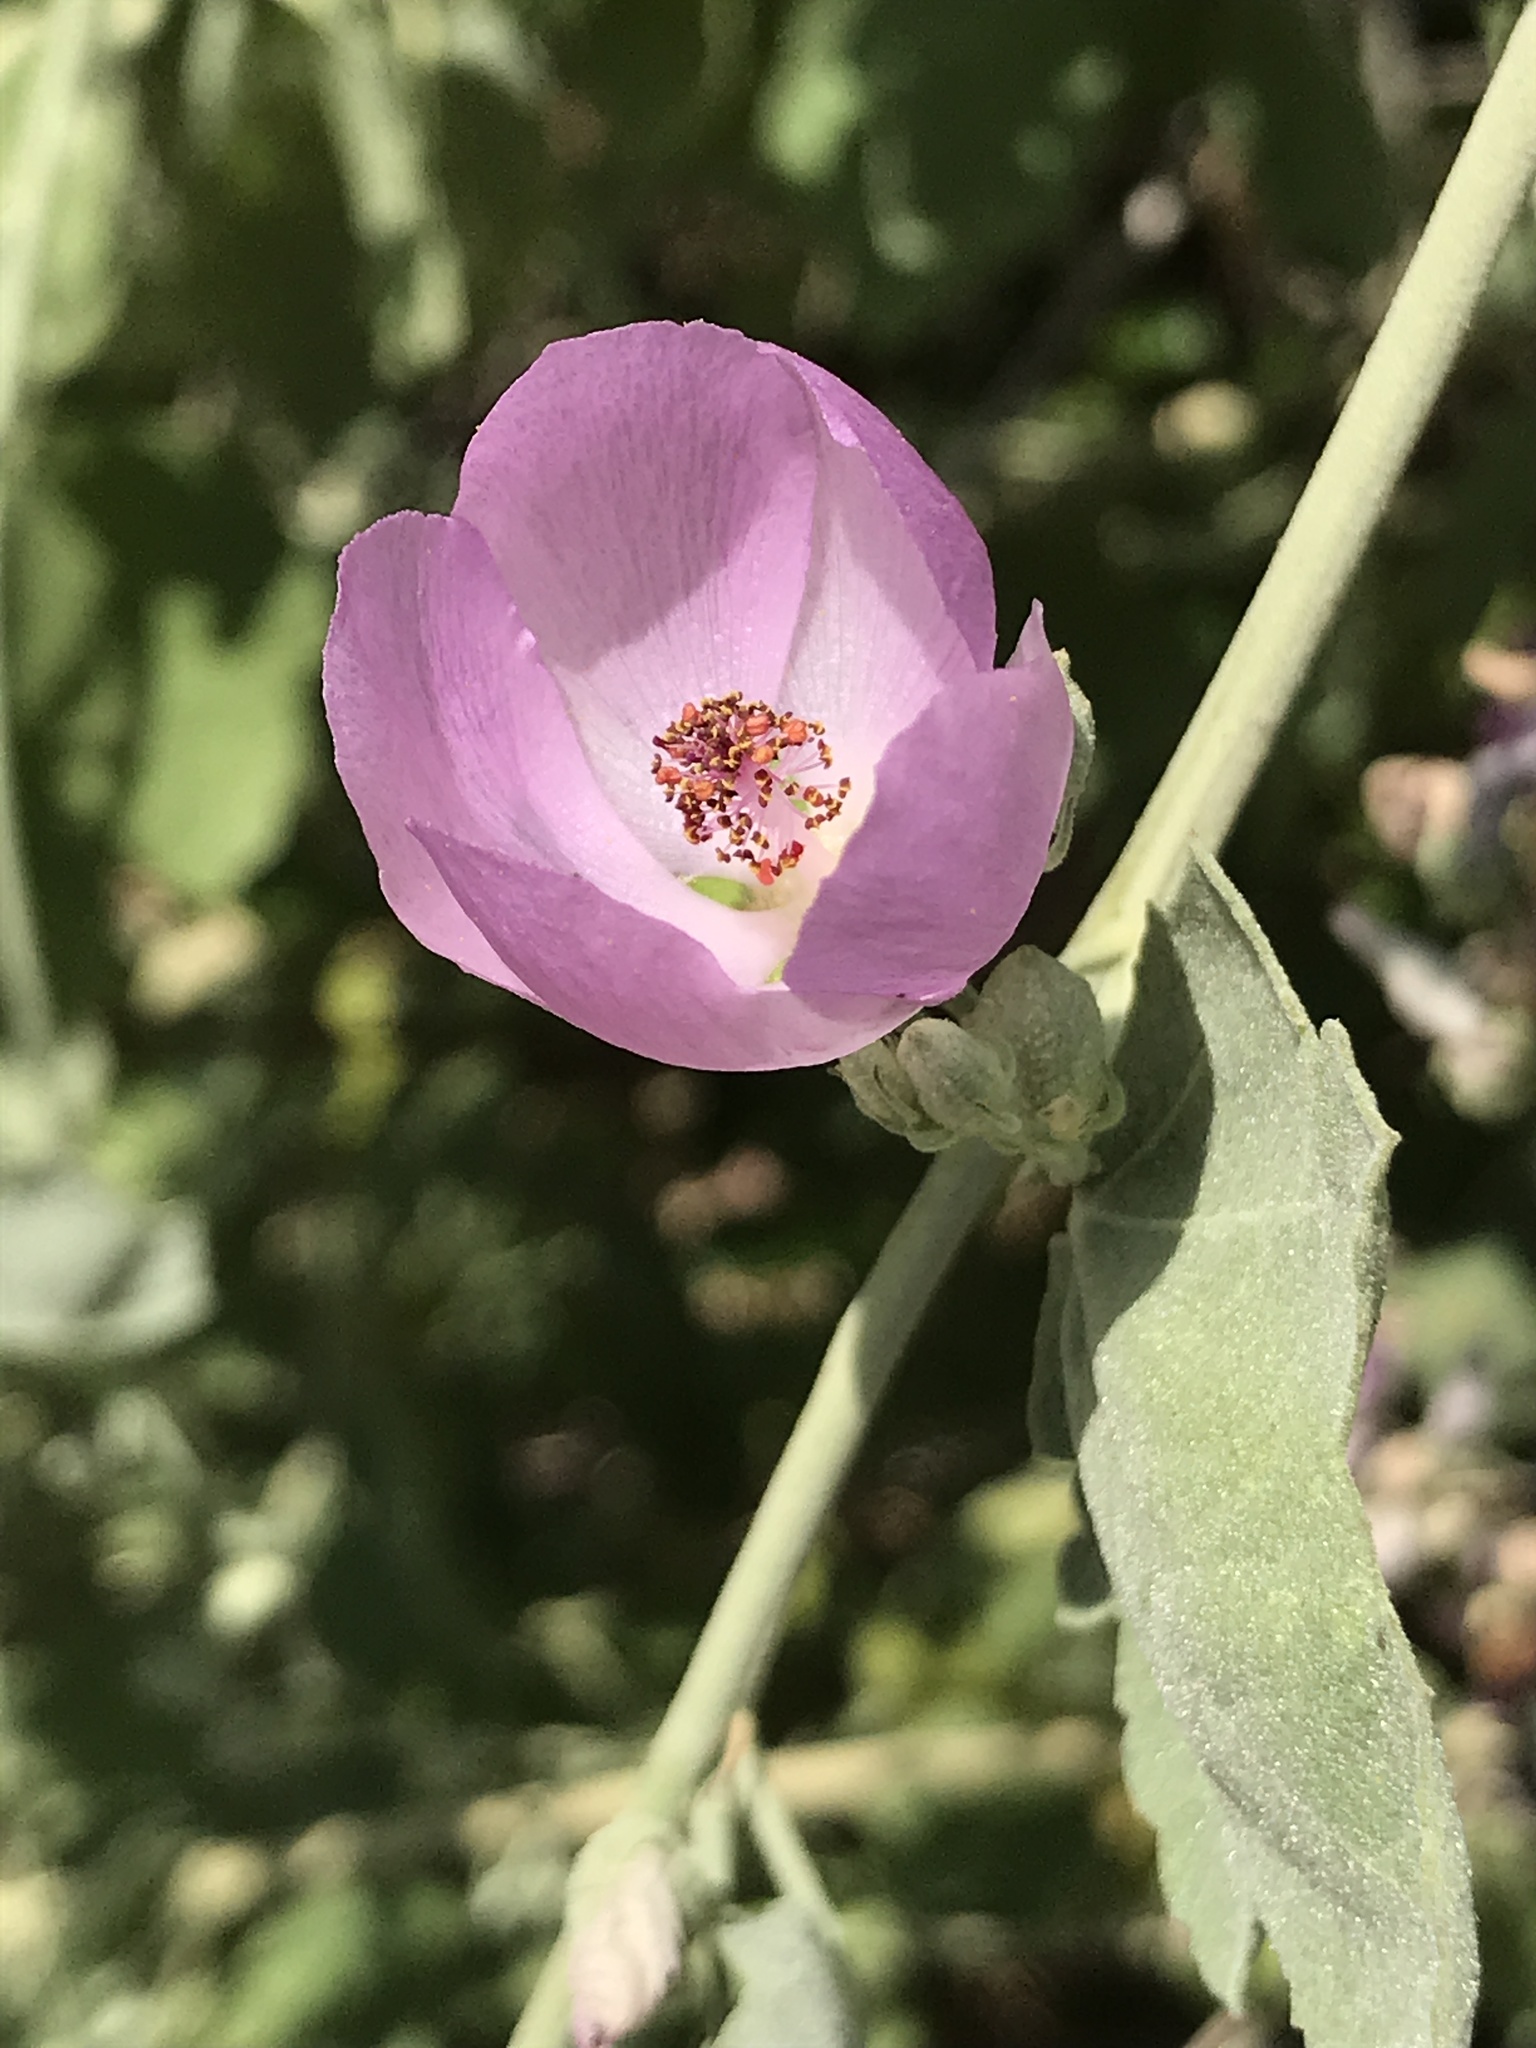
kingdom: Plantae
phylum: Tracheophyta
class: Magnoliopsida
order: Malvales
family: Malvaceae
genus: Malacothamnus
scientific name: Malacothamnus fasciculatus
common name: Sant cruz island bush-mallow
